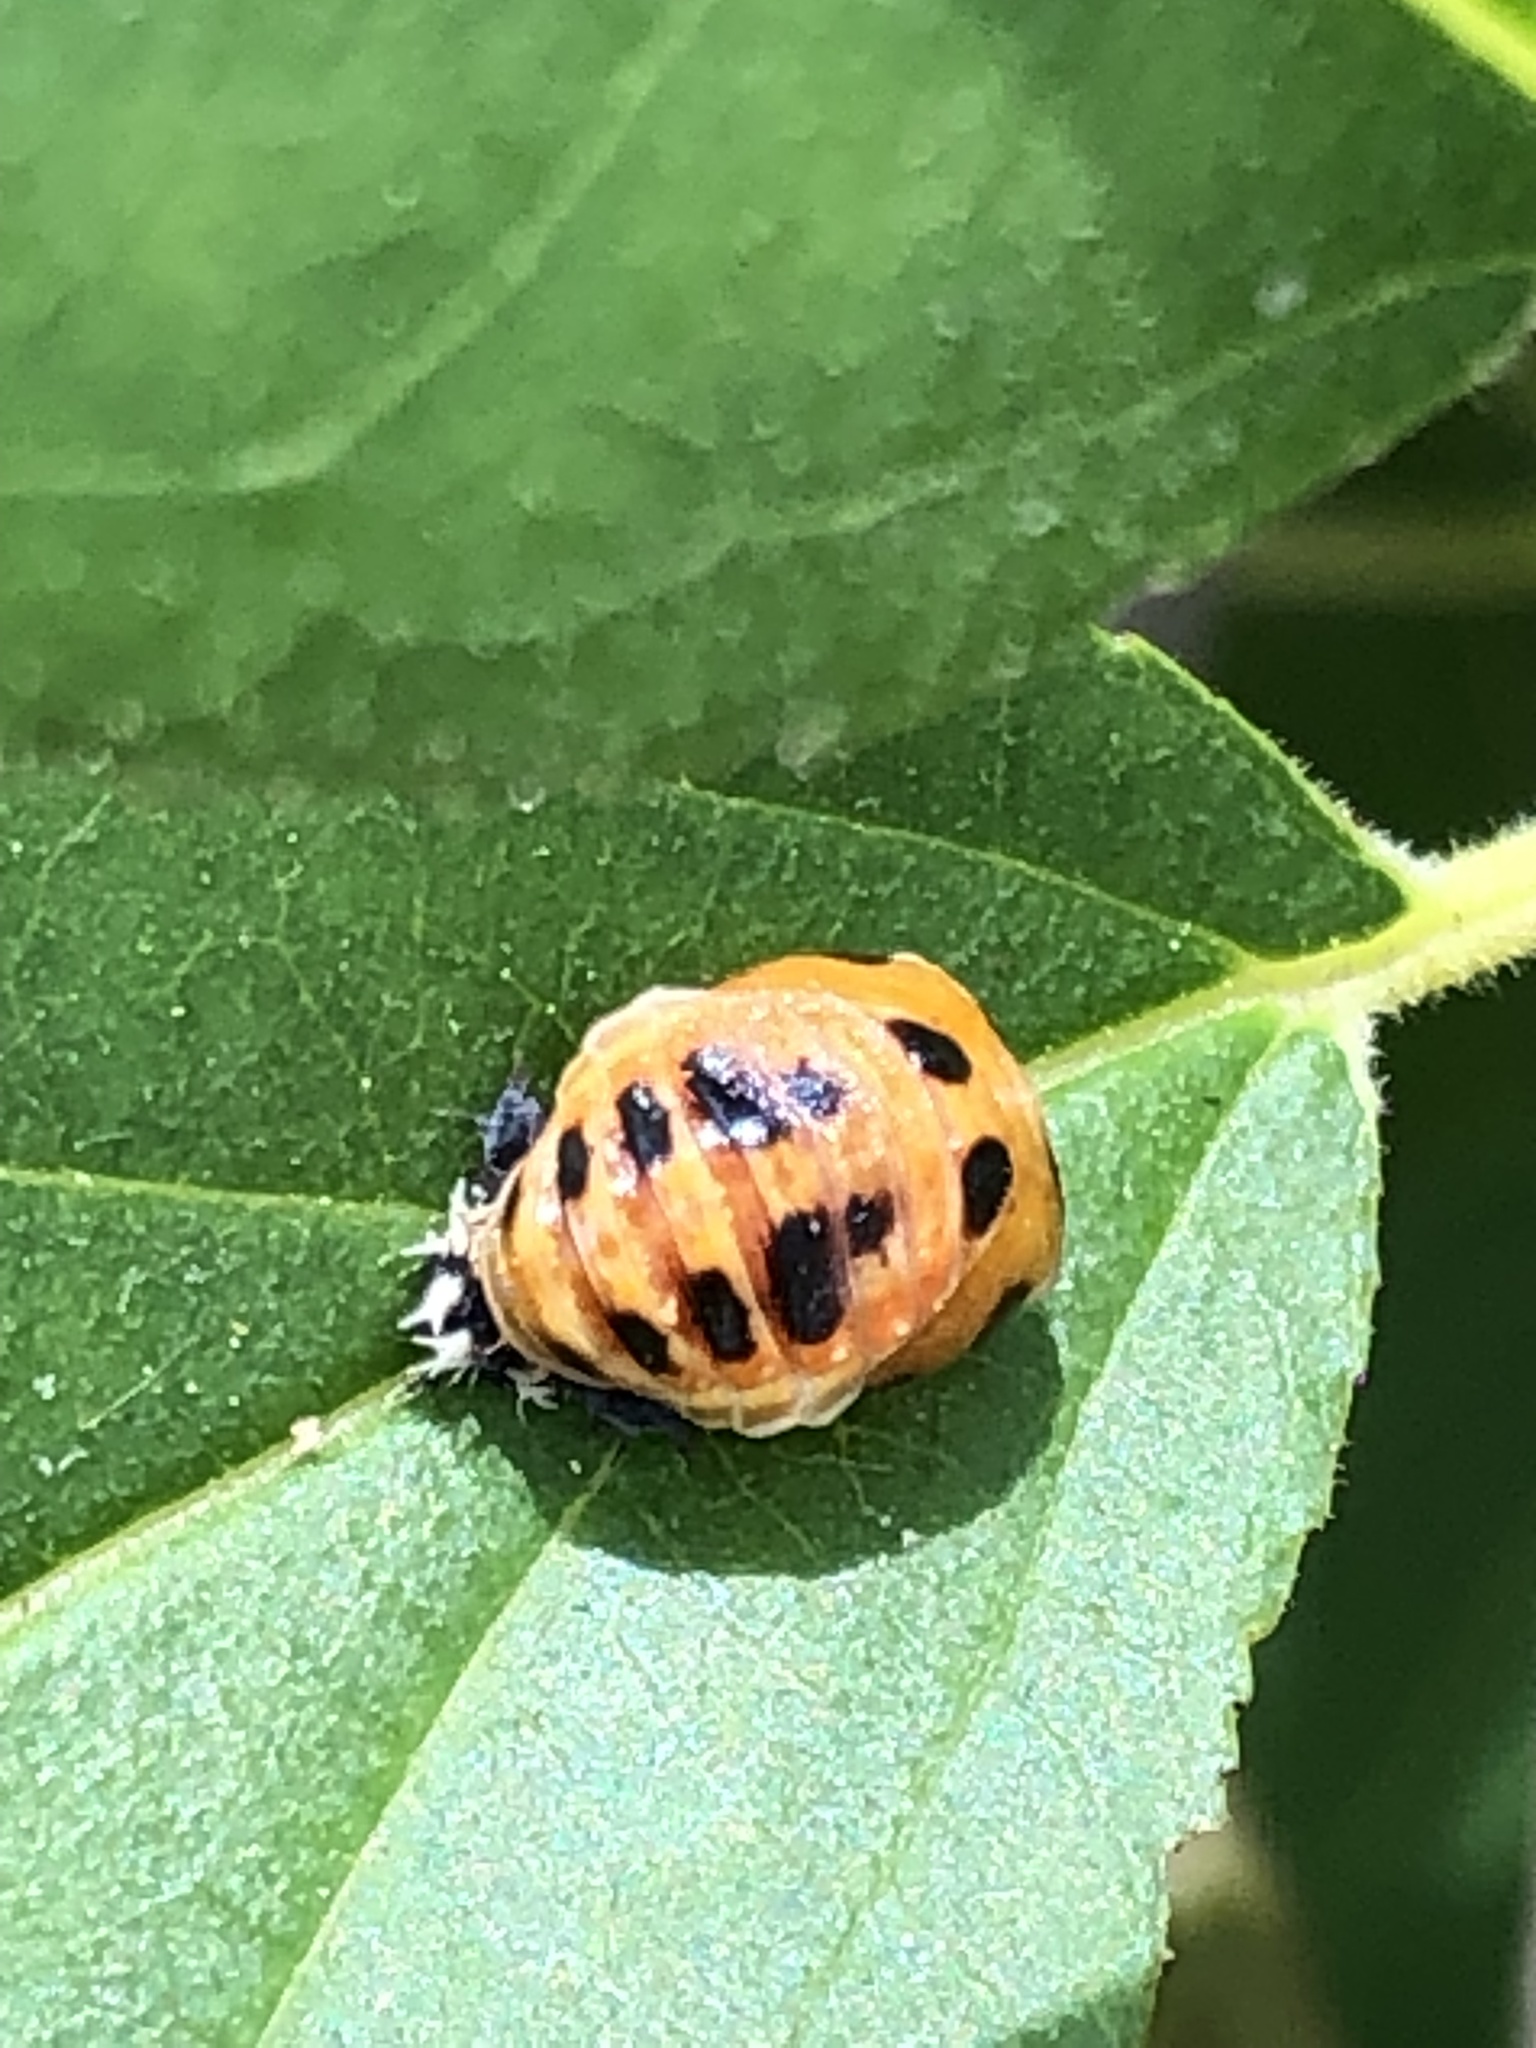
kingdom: Animalia
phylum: Arthropoda
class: Insecta
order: Coleoptera
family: Coccinellidae
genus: Harmonia
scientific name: Harmonia axyridis
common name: Harlequin ladybird
